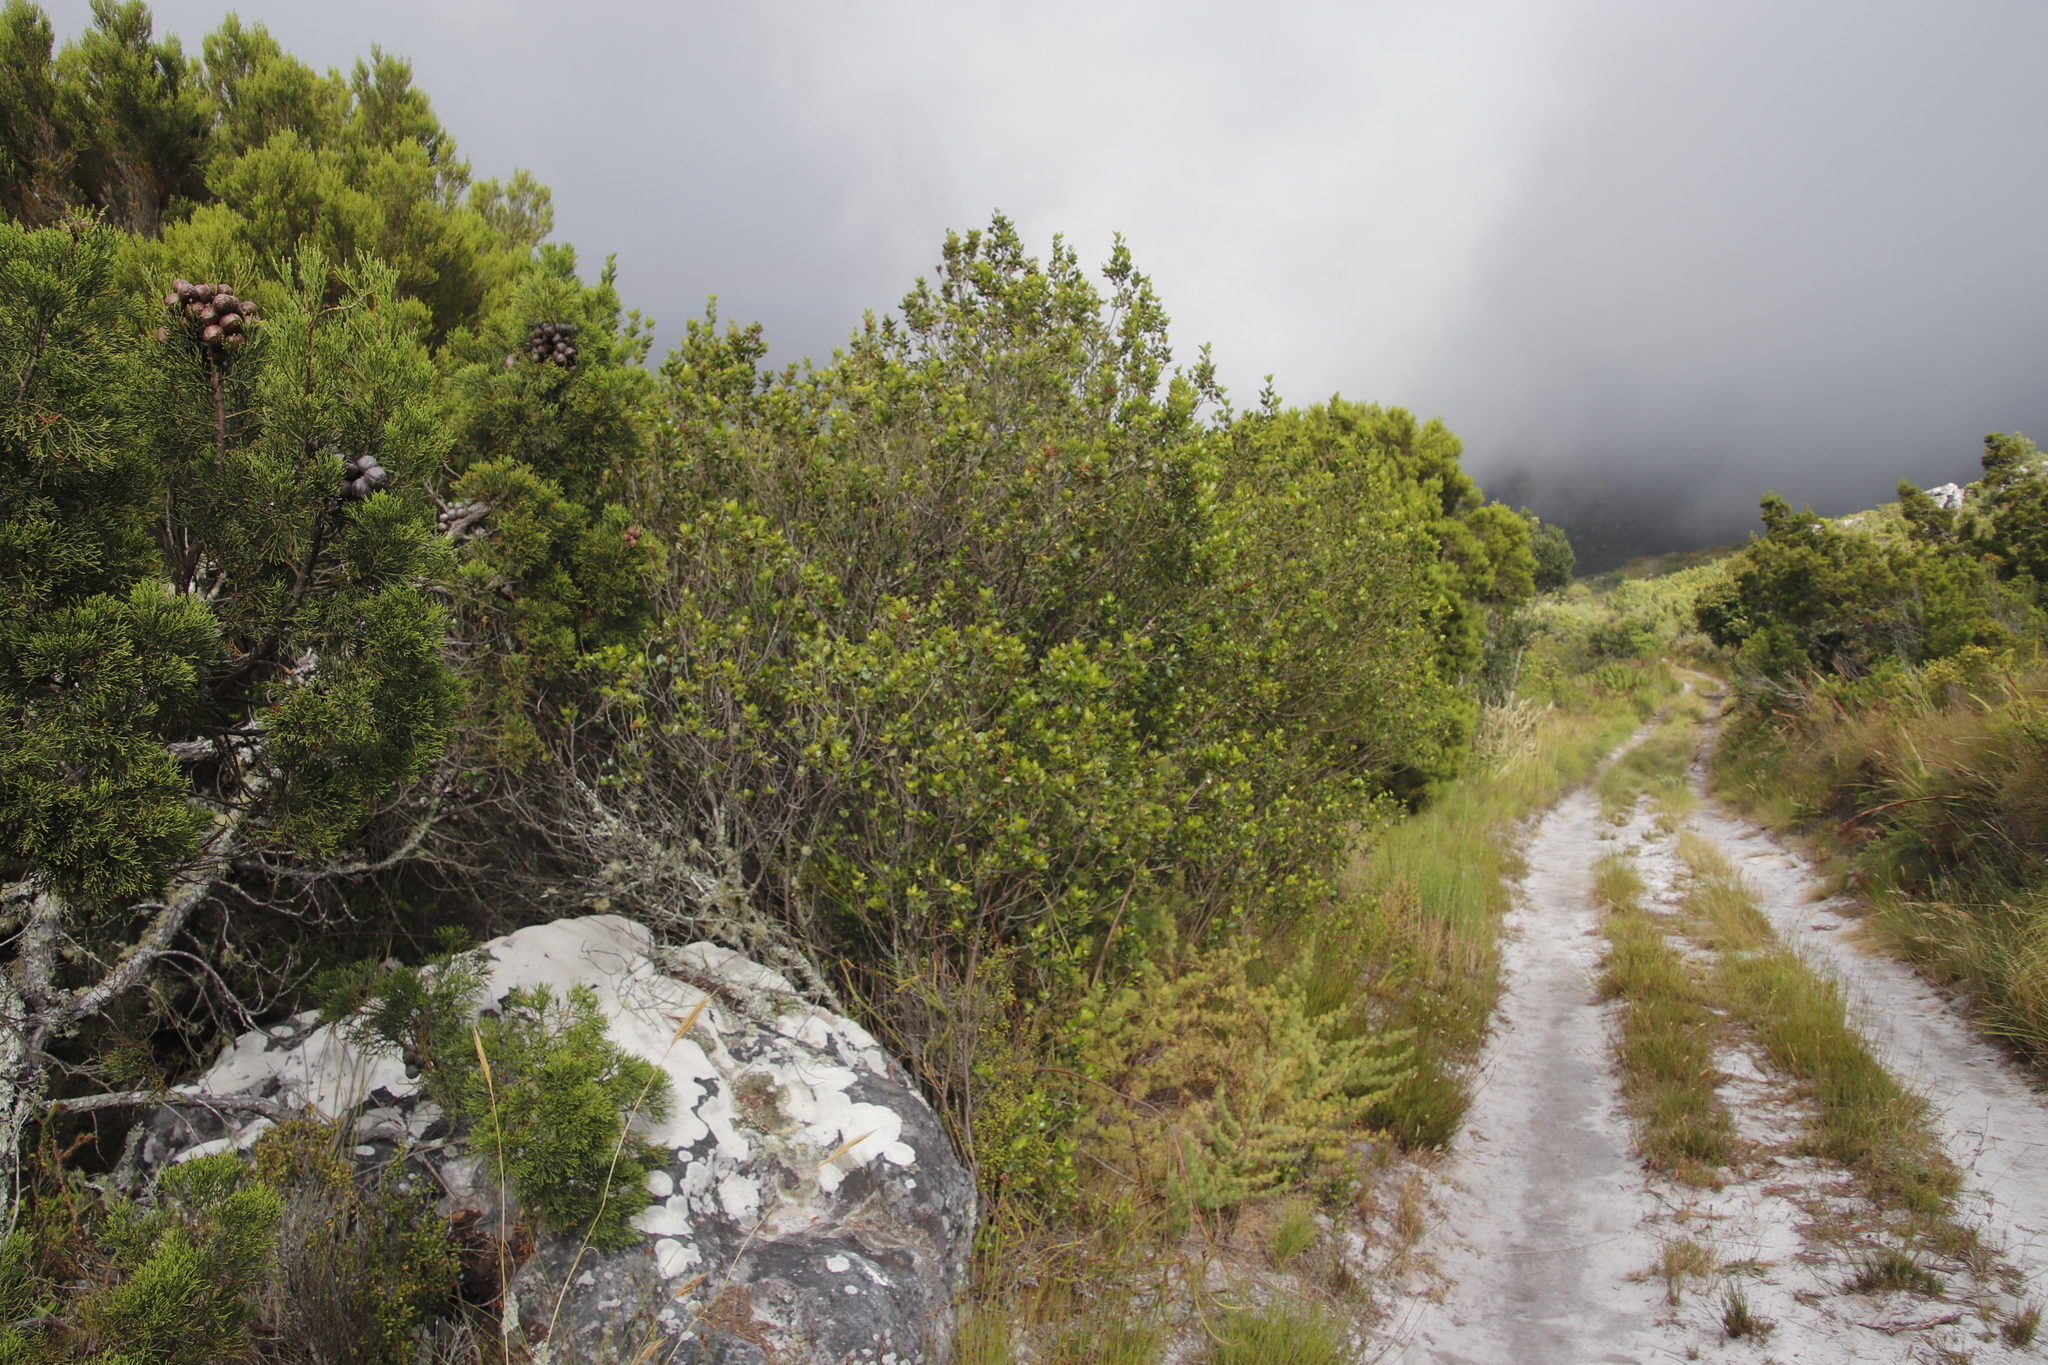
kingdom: Plantae
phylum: Tracheophyta
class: Magnoliopsida
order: Sapindales
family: Anacardiaceae
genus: Searsia
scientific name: Searsia lucida
